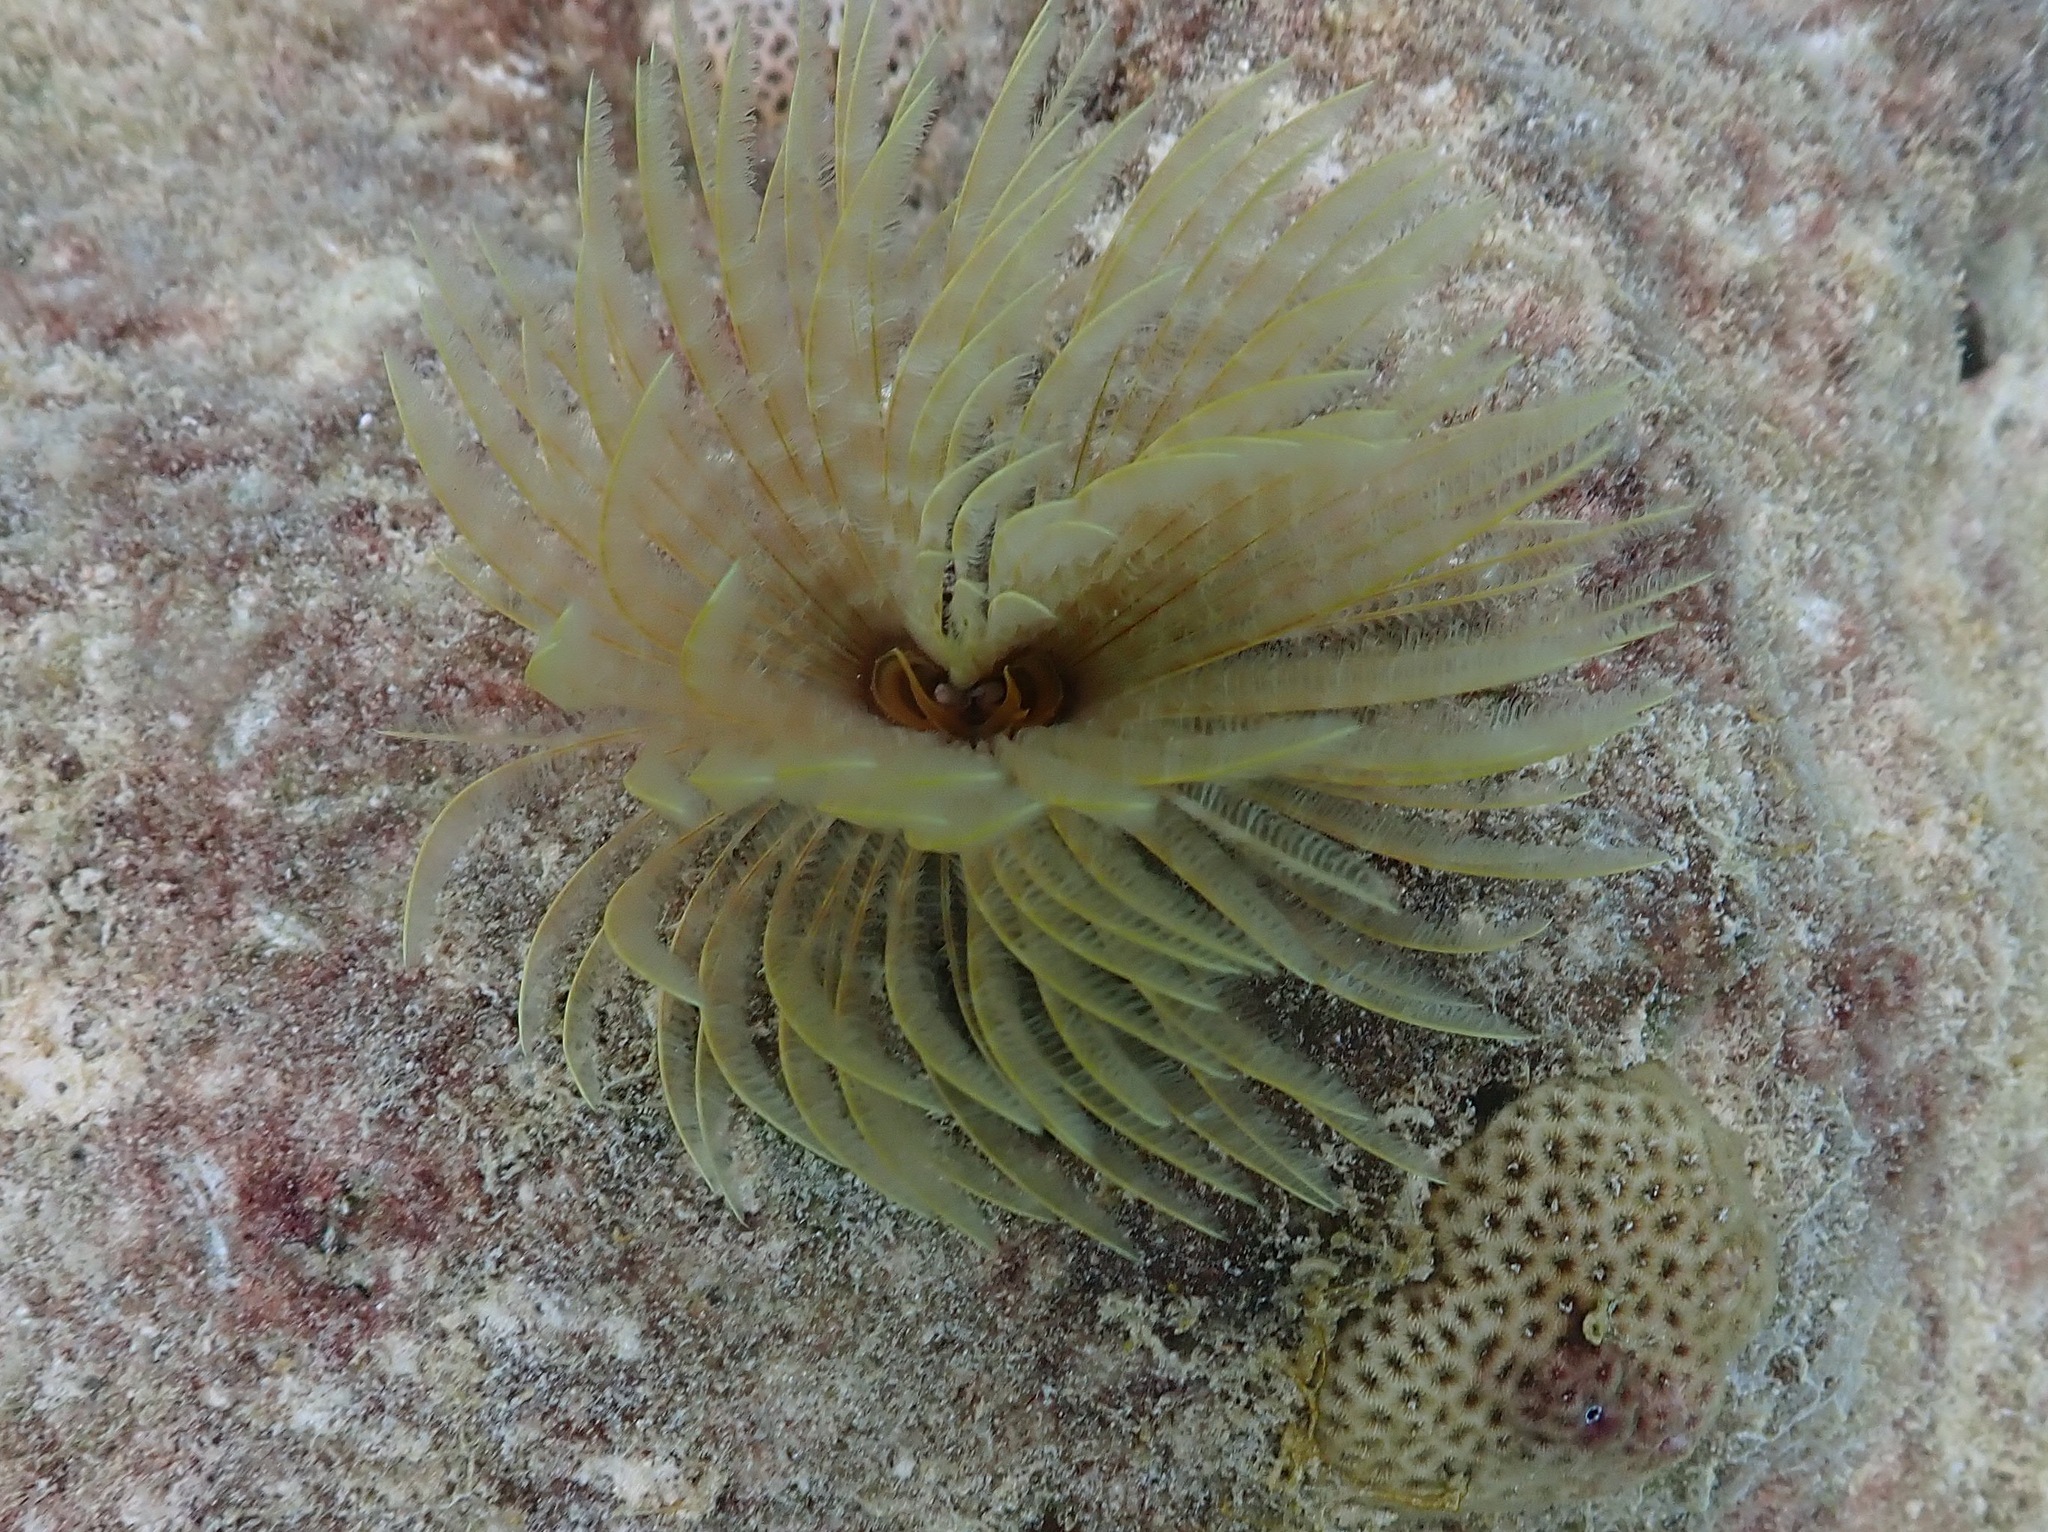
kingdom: Animalia
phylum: Annelida
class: Polychaeta
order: Sabellida
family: Sabellidae
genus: Sabellastarte
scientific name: Sabellastarte magnifica
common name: Giant feather-duster worm
